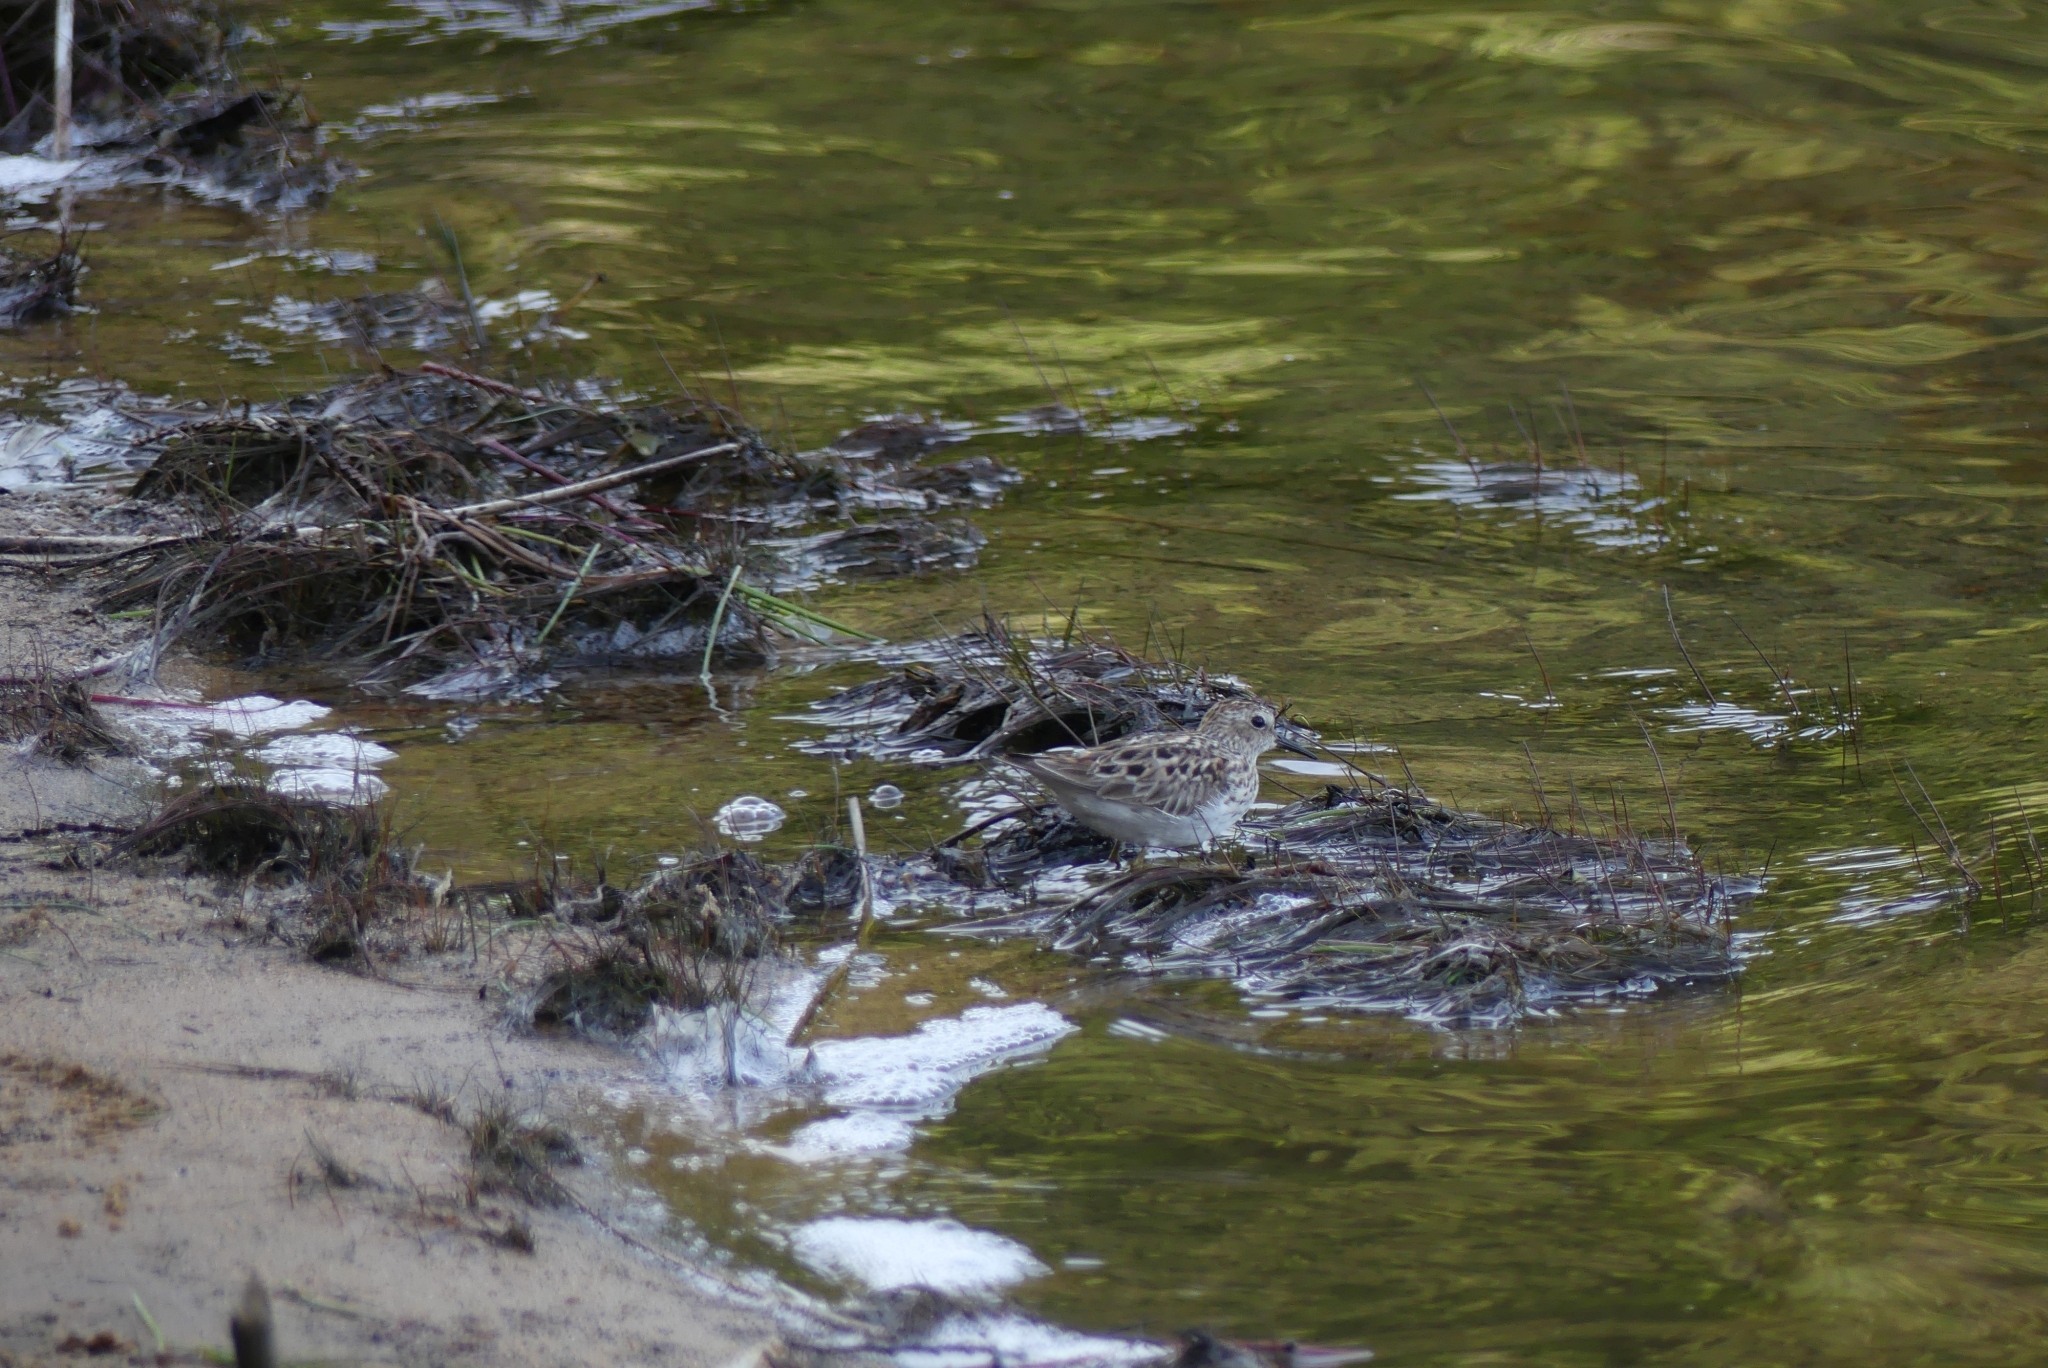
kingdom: Animalia
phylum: Chordata
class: Aves
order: Charadriiformes
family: Scolopacidae
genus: Calidris
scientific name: Calidris minutilla
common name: Least sandpiper
